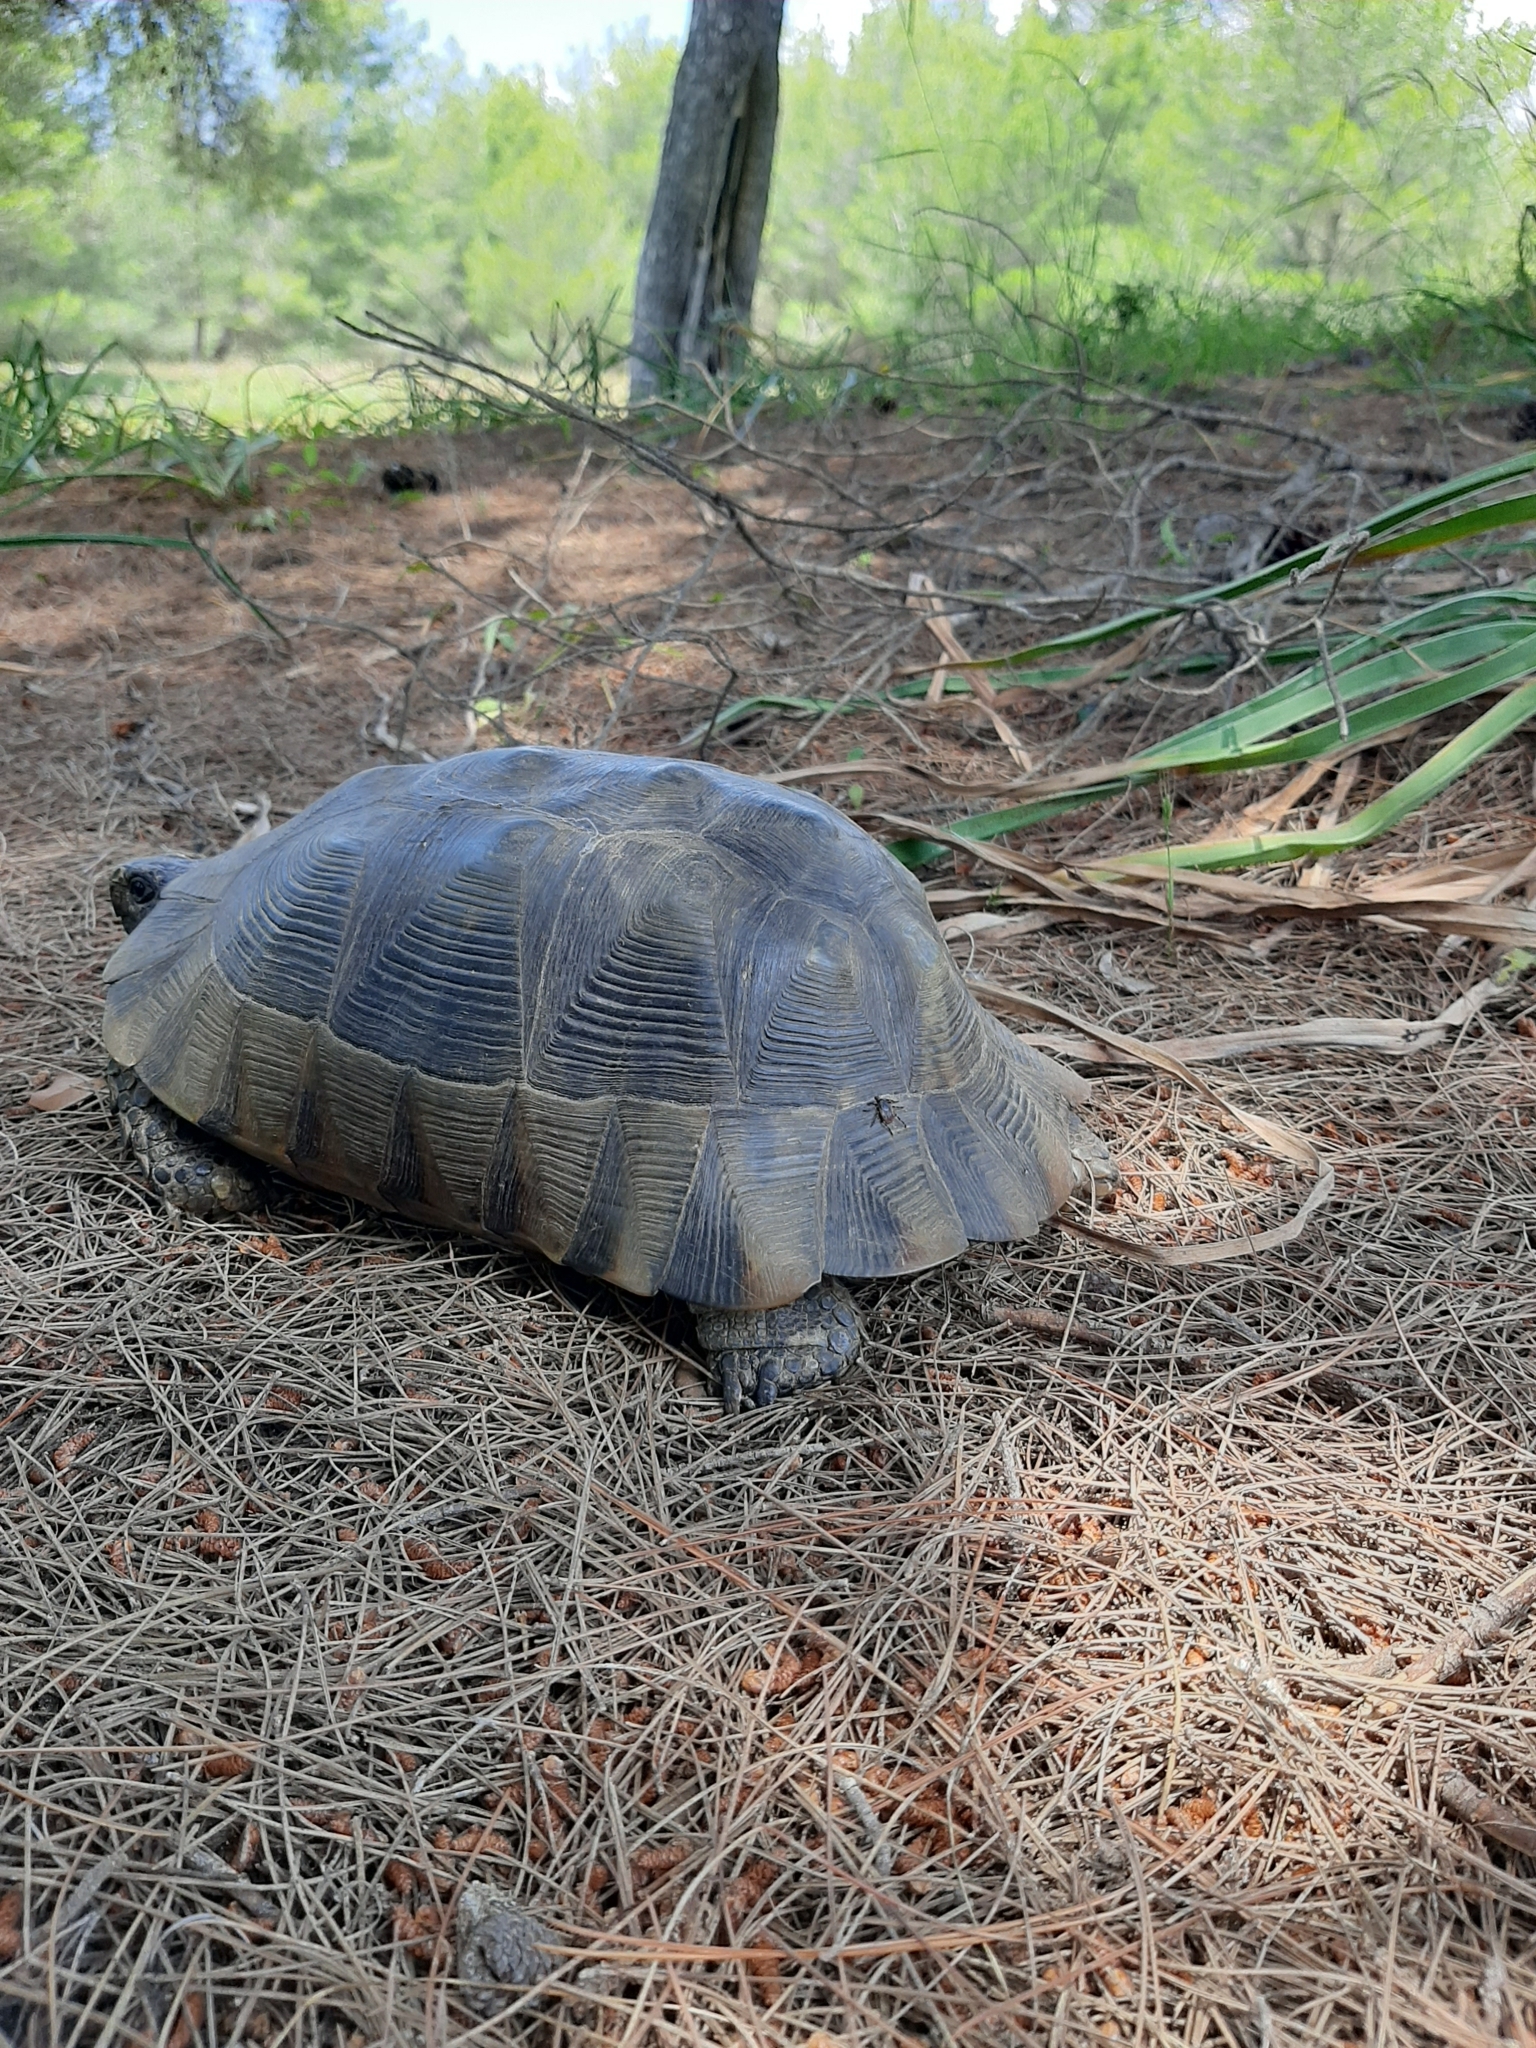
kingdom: Animalia
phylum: Chordata
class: Testudines
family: Testudinidae
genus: Testudo
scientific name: Testudo marginata
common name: Marginated tortoise
